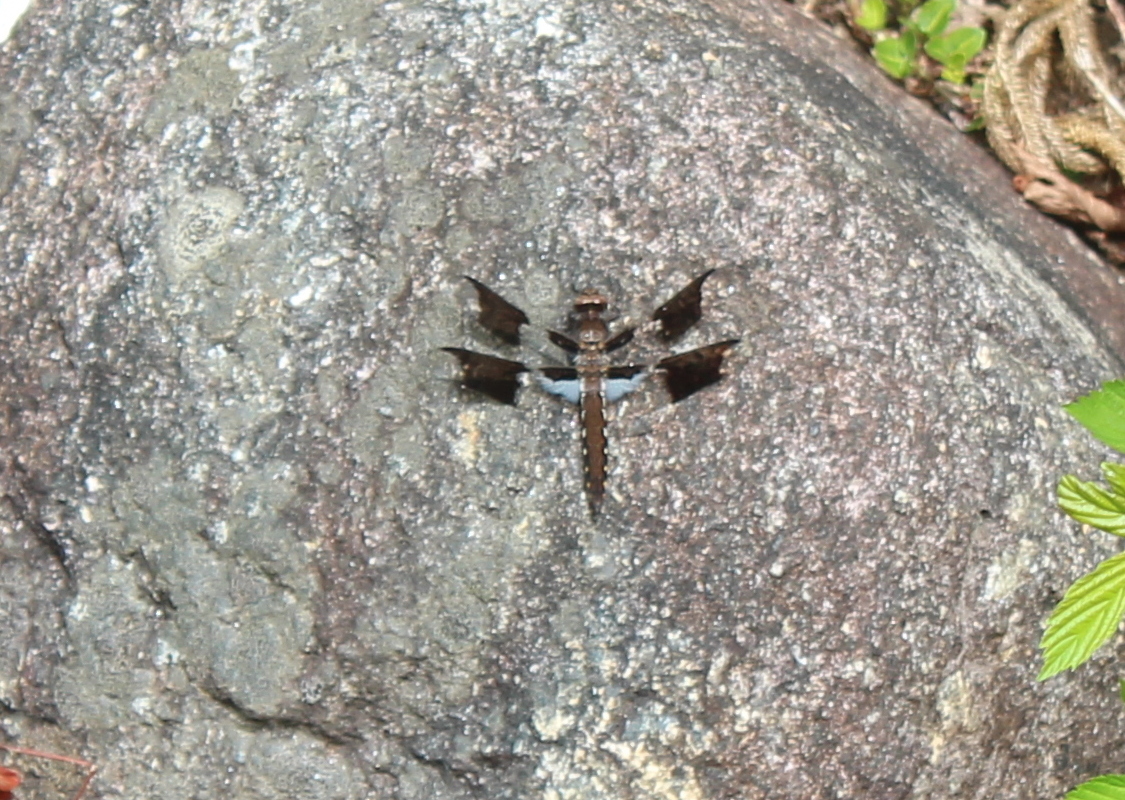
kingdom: Animalia
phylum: Arthropoda
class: Insecta
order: Odonata
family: Libellulidae
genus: Plathemis
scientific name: Plathemis lydia
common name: Common whitetail
